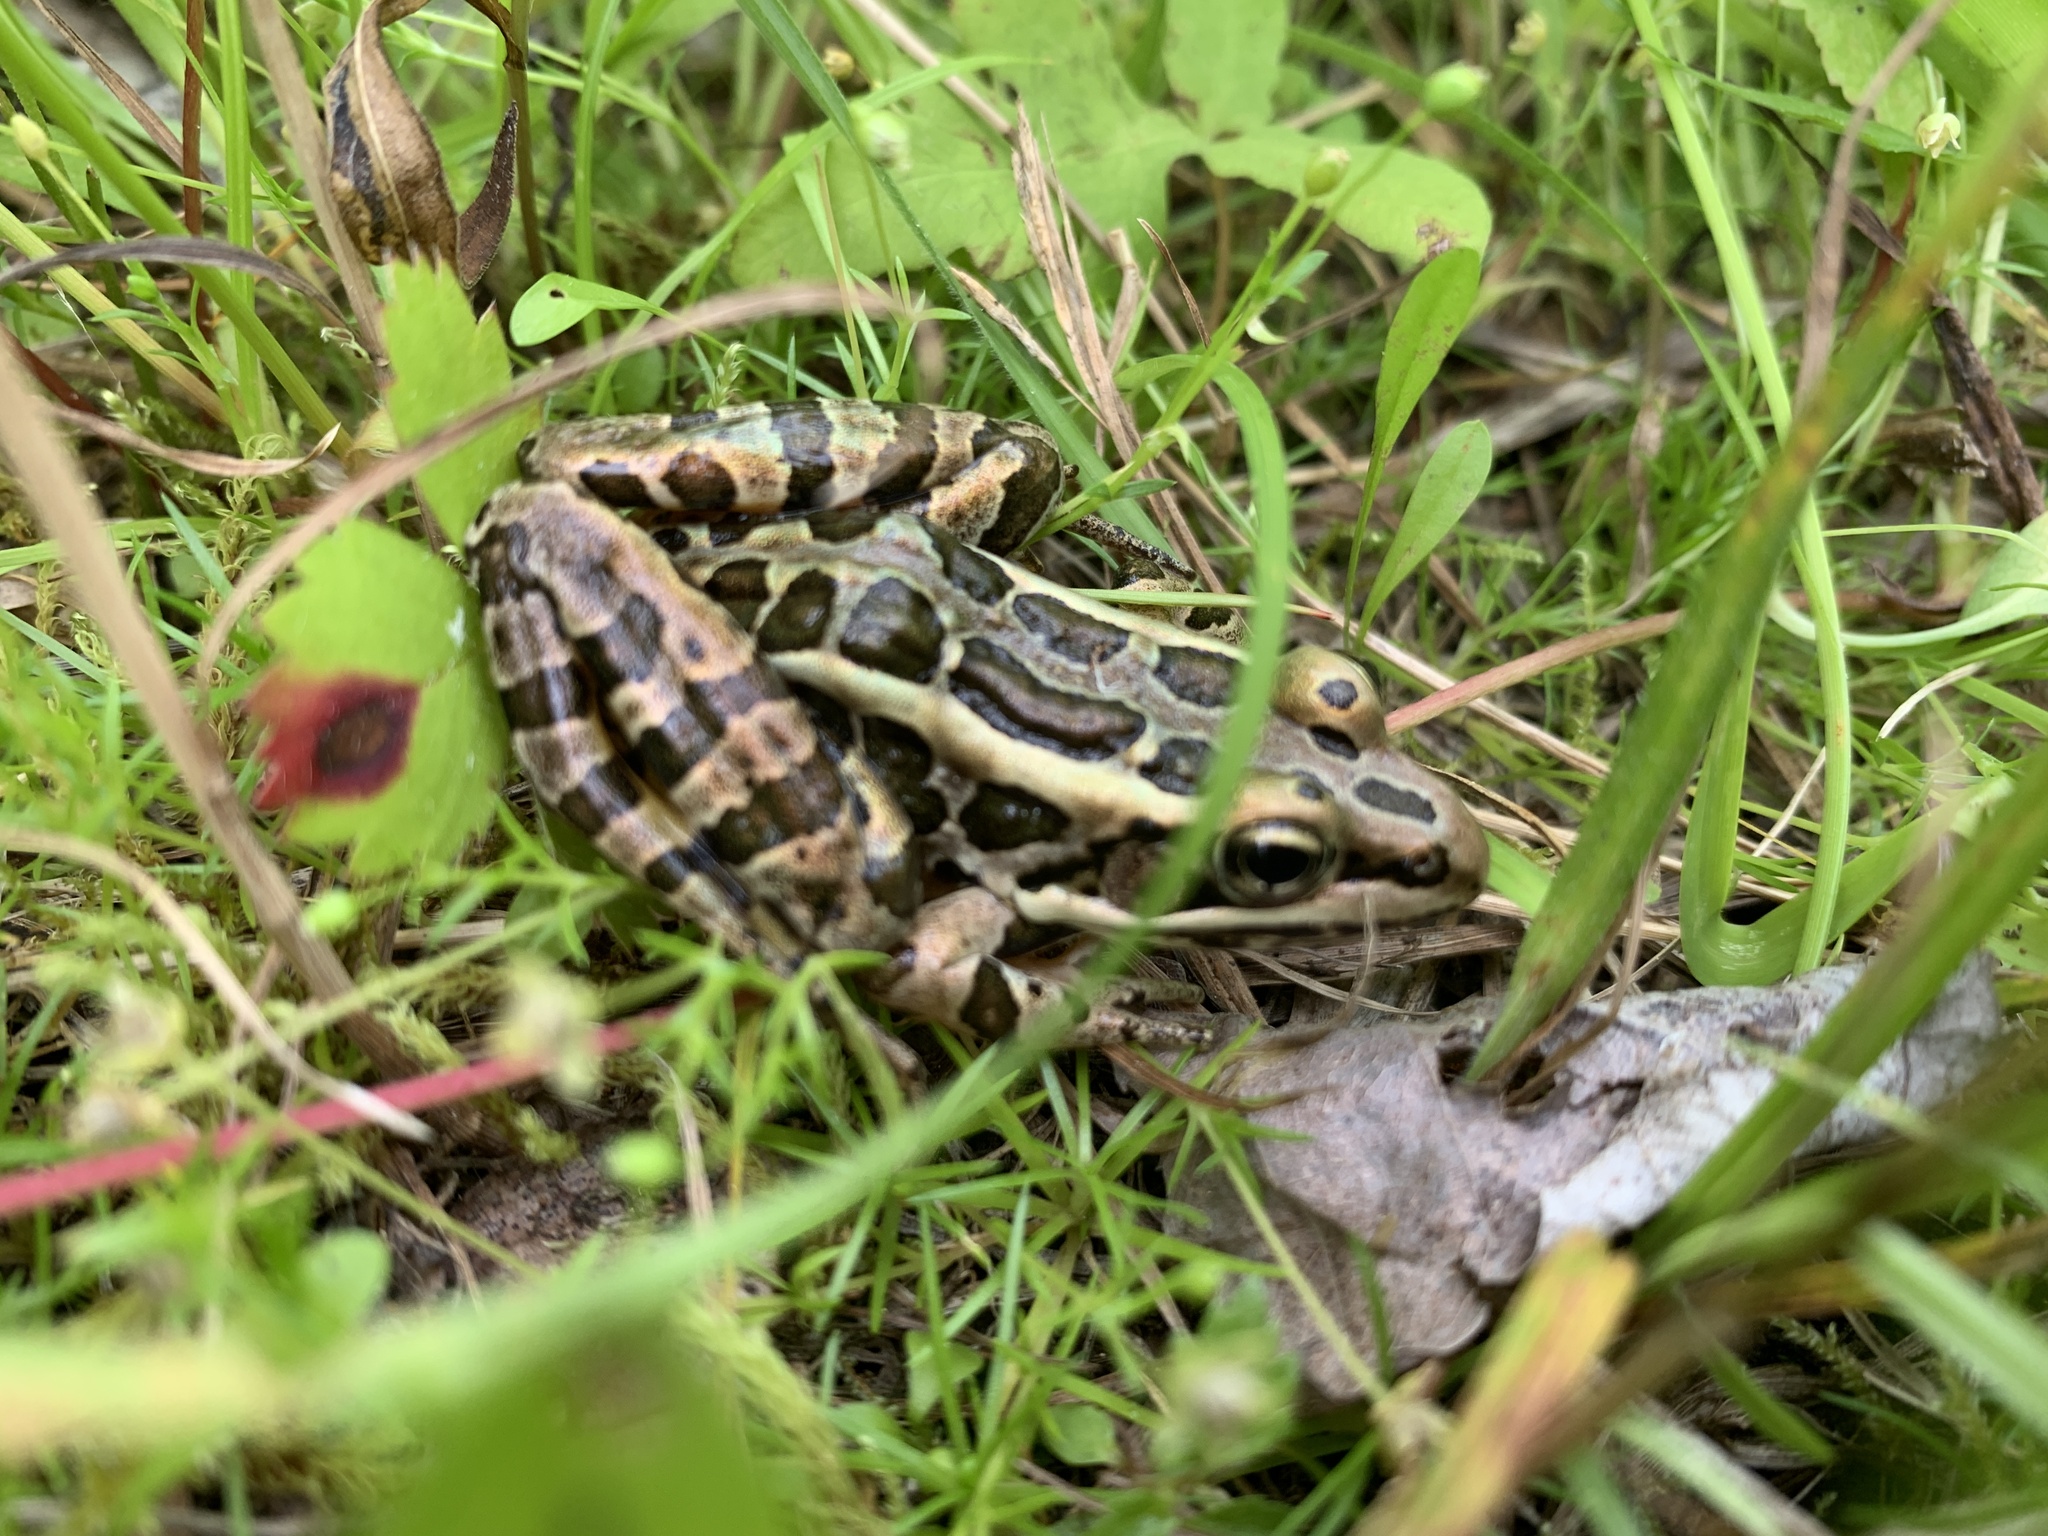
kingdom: Animalia
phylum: Chordata
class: Amphibia
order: Anura
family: Ranidae
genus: Lithobates
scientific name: Lithobates palustris
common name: Pickerel frog
